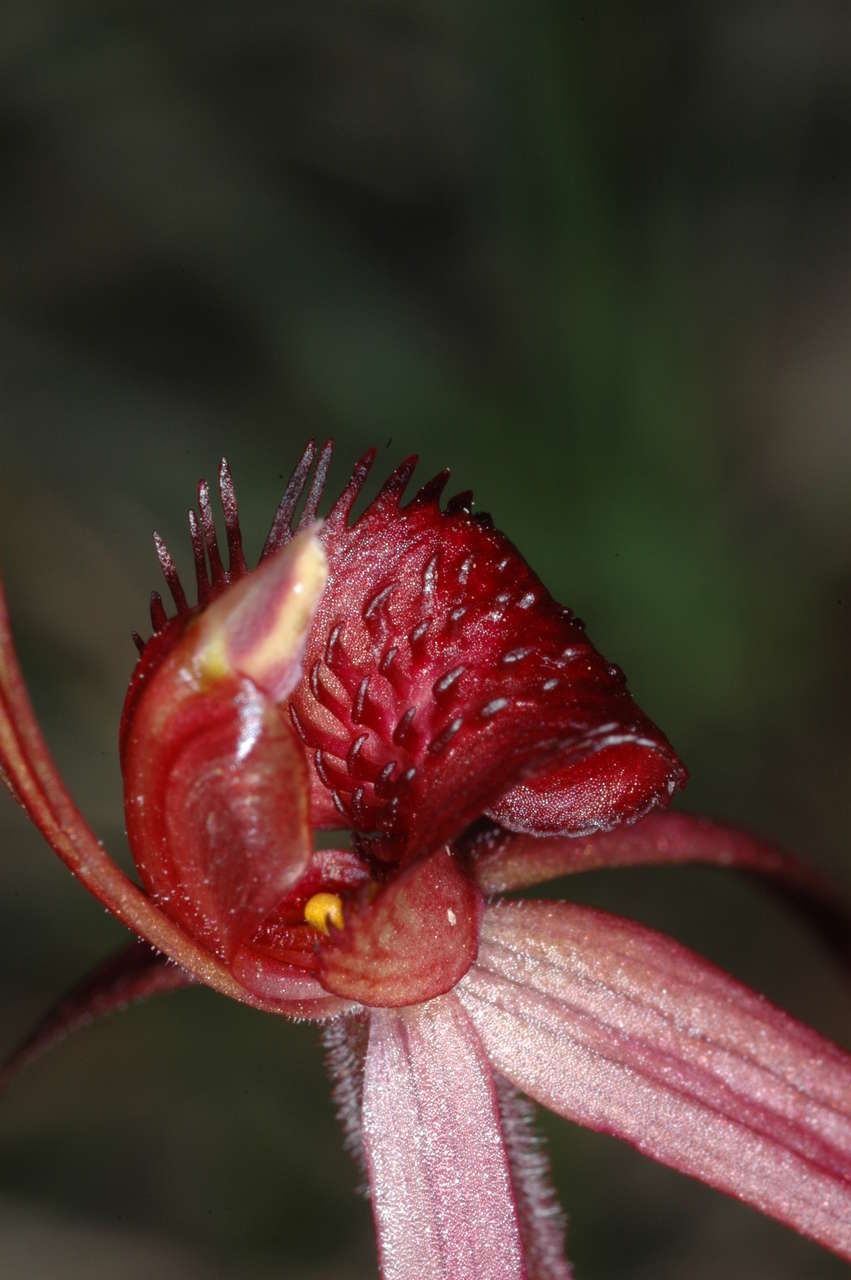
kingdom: Plantae
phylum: Tracheophyta
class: Liliopsida
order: Asparagales
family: Orchidaceae
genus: Caladenia
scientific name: Caladenia concolor
